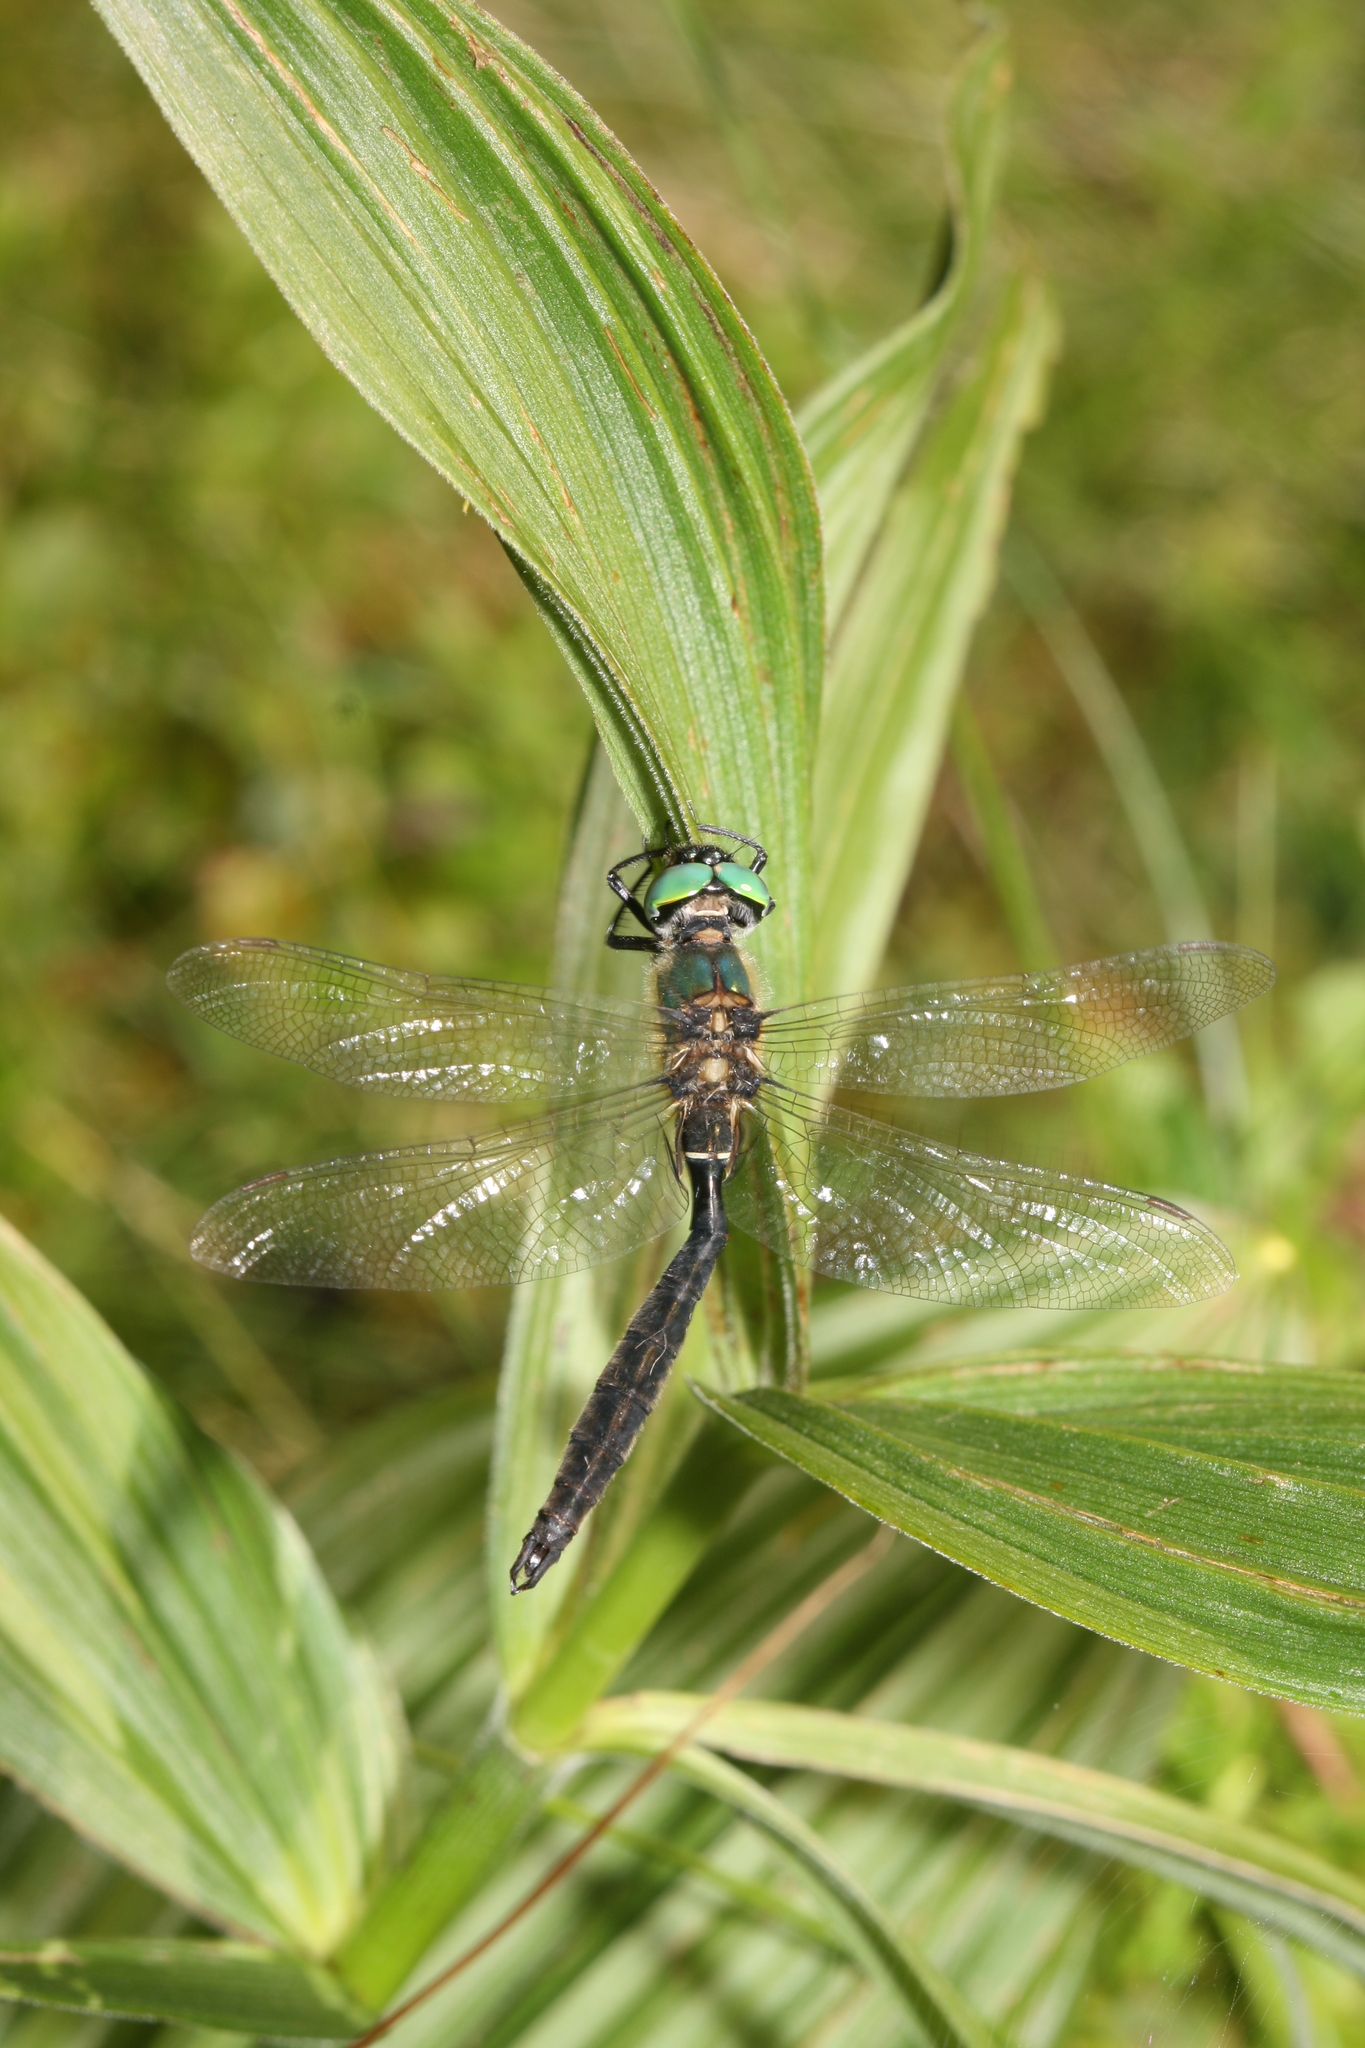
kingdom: Animalia
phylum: Arthropoda
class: Insecta
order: Odonata
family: Corduliidae
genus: Somatochlora
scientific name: Somatochlora alpestris
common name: Alpine emerald
